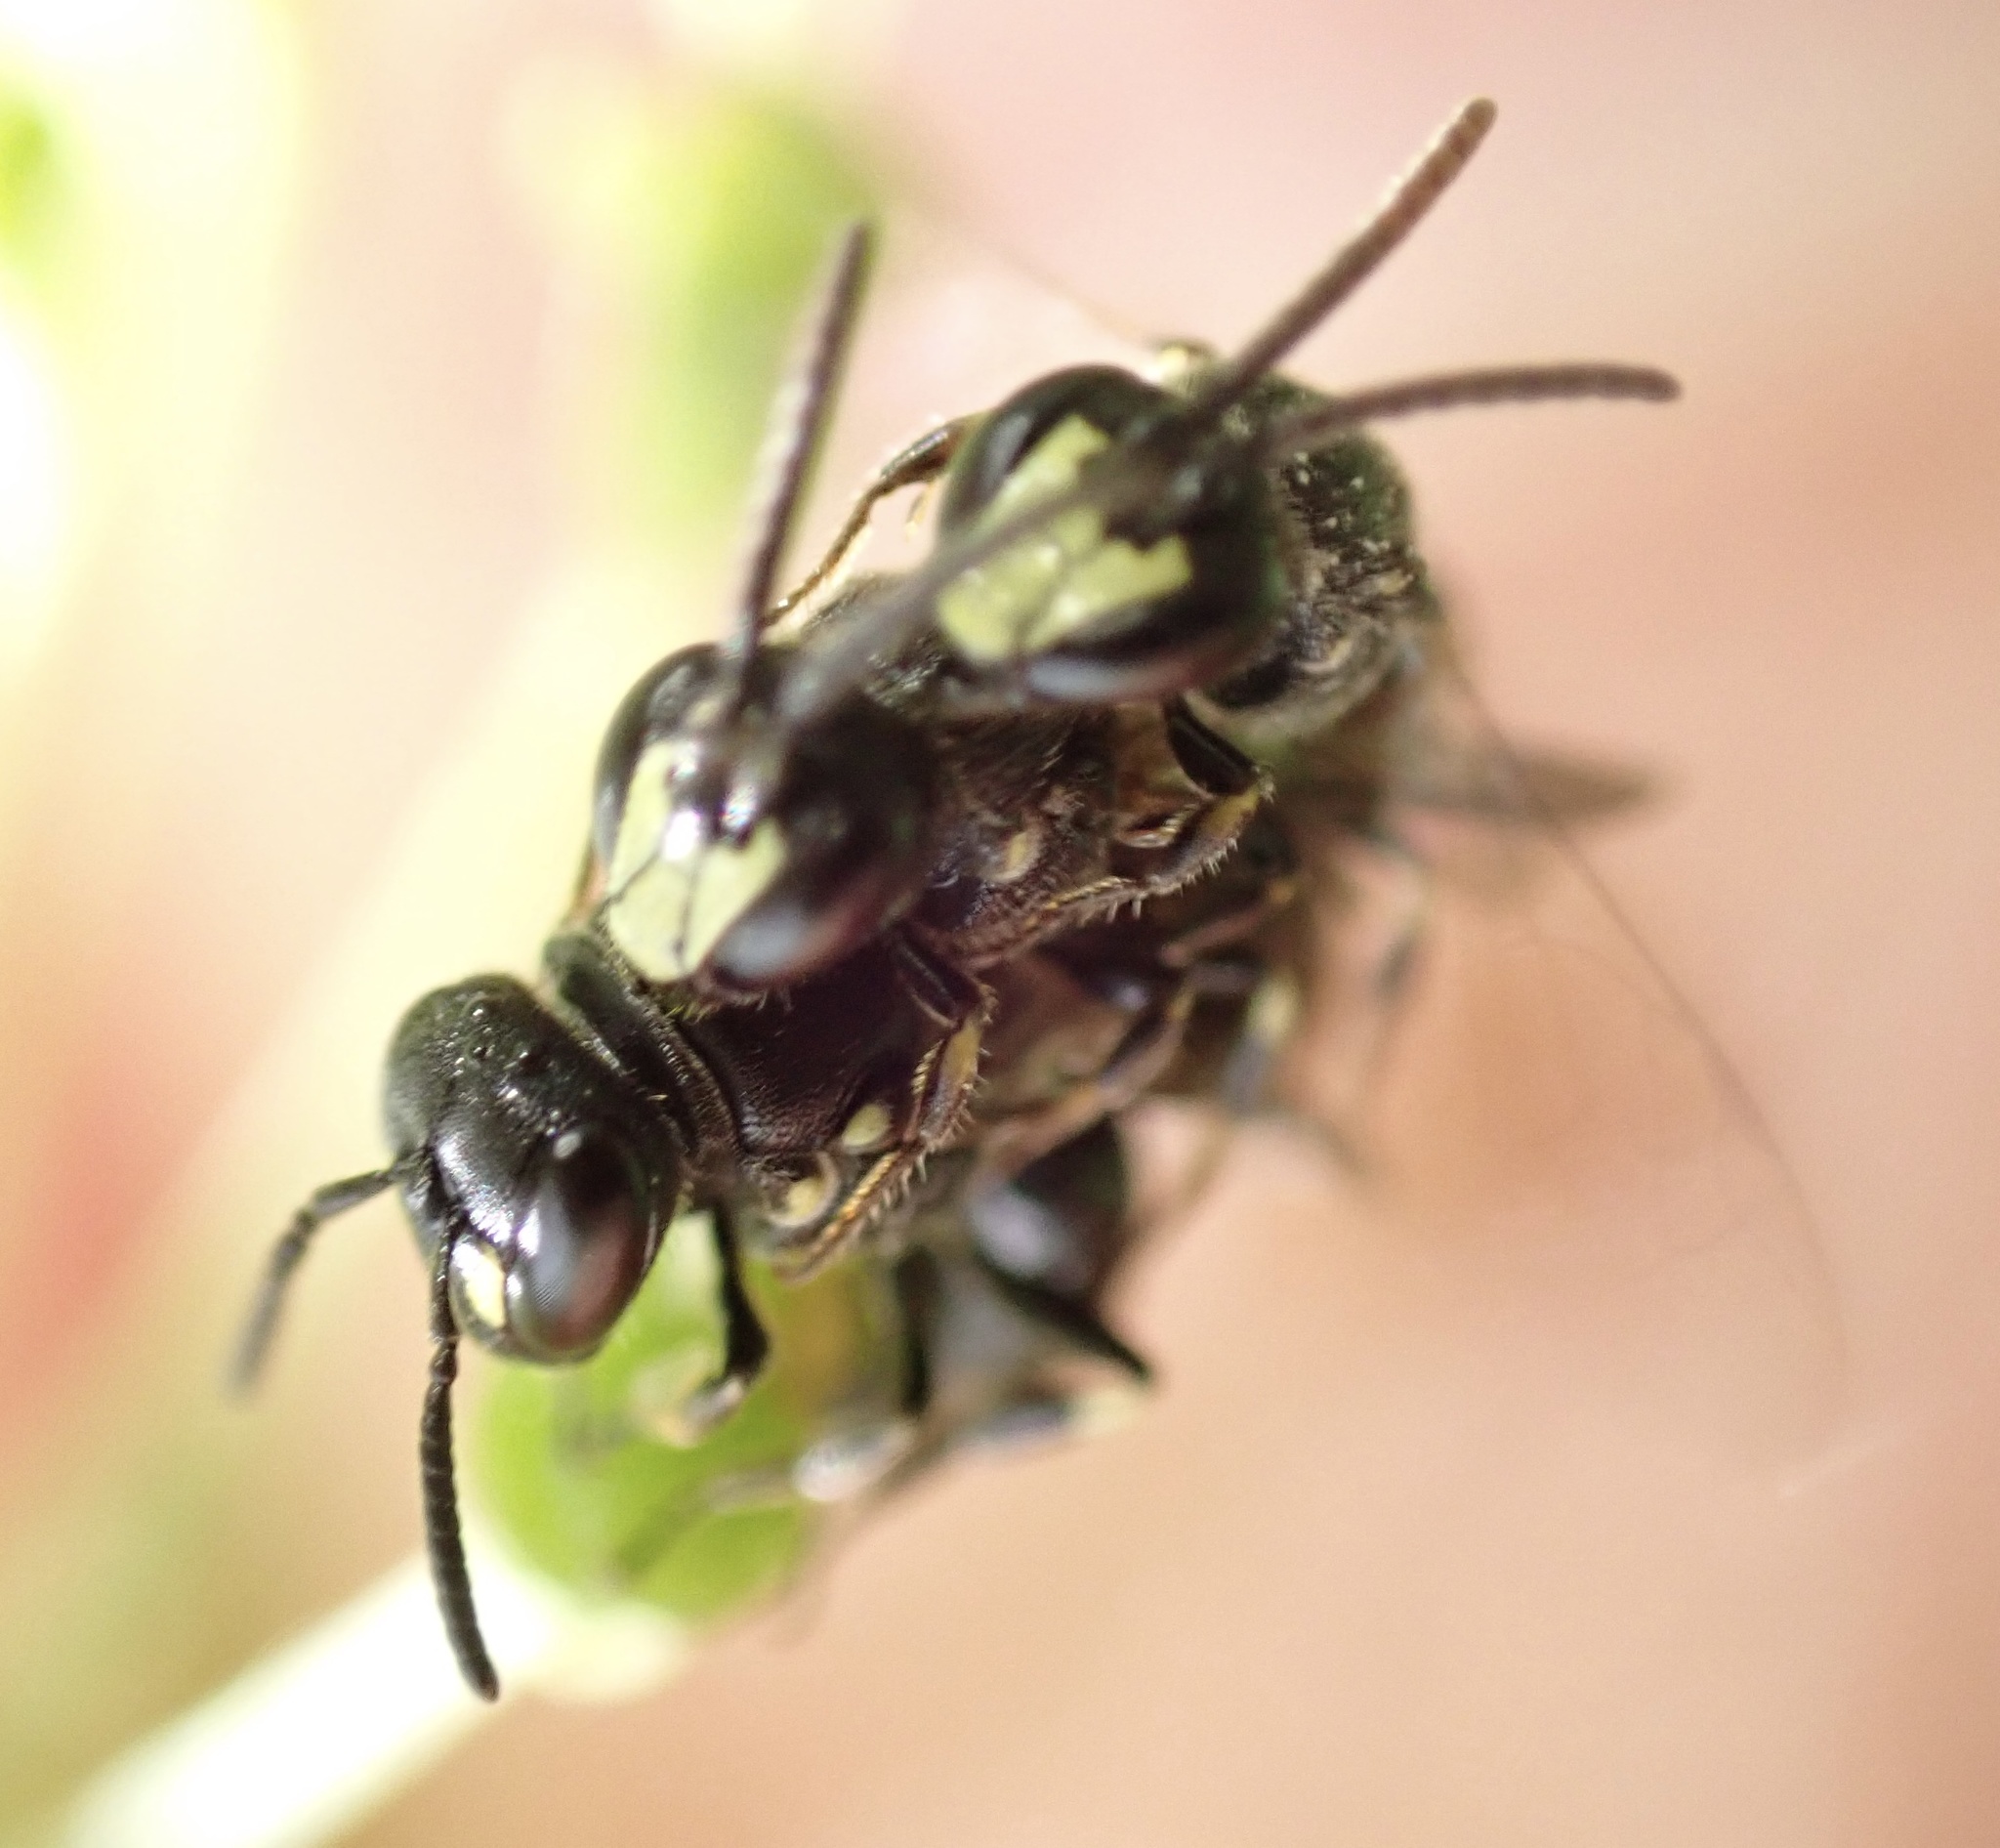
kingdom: Animalia
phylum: Arthropoda
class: Insecta
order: Hymenoptera
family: Colletidae
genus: Hylaeus
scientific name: Hylaeus communis
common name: Common yellow-face bee
